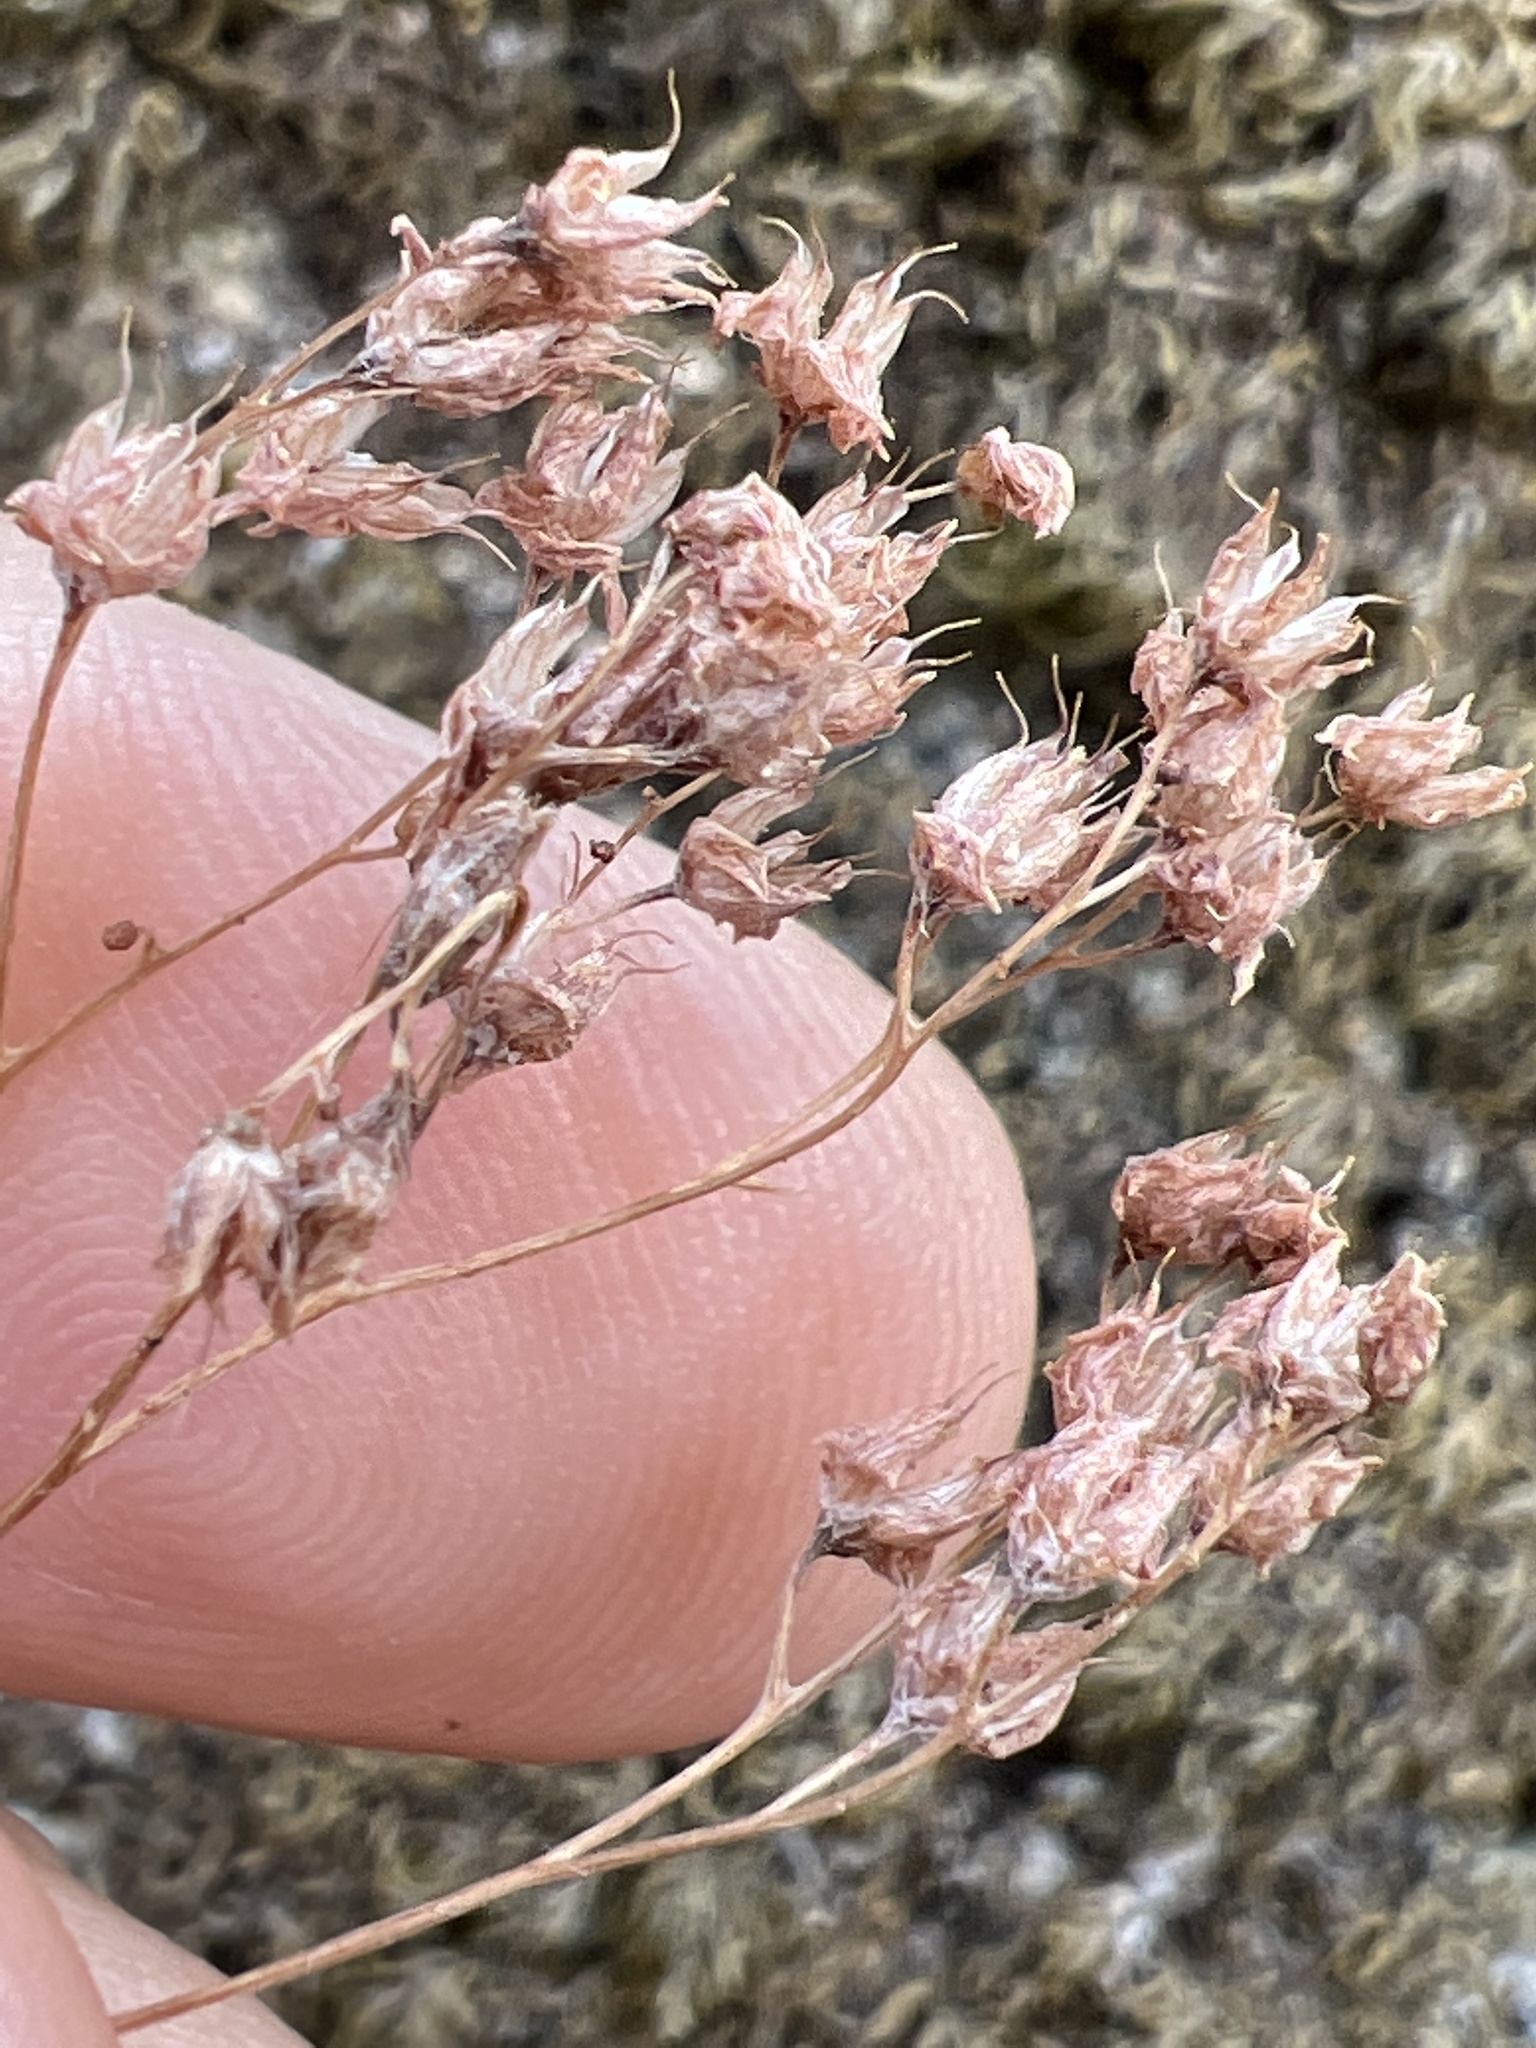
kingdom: Plantae
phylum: Tracheophyta
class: Magnoliopsida
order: Saxifragales
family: Crassulaceae
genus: Sedum
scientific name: Sedum album
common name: White stonecrop
